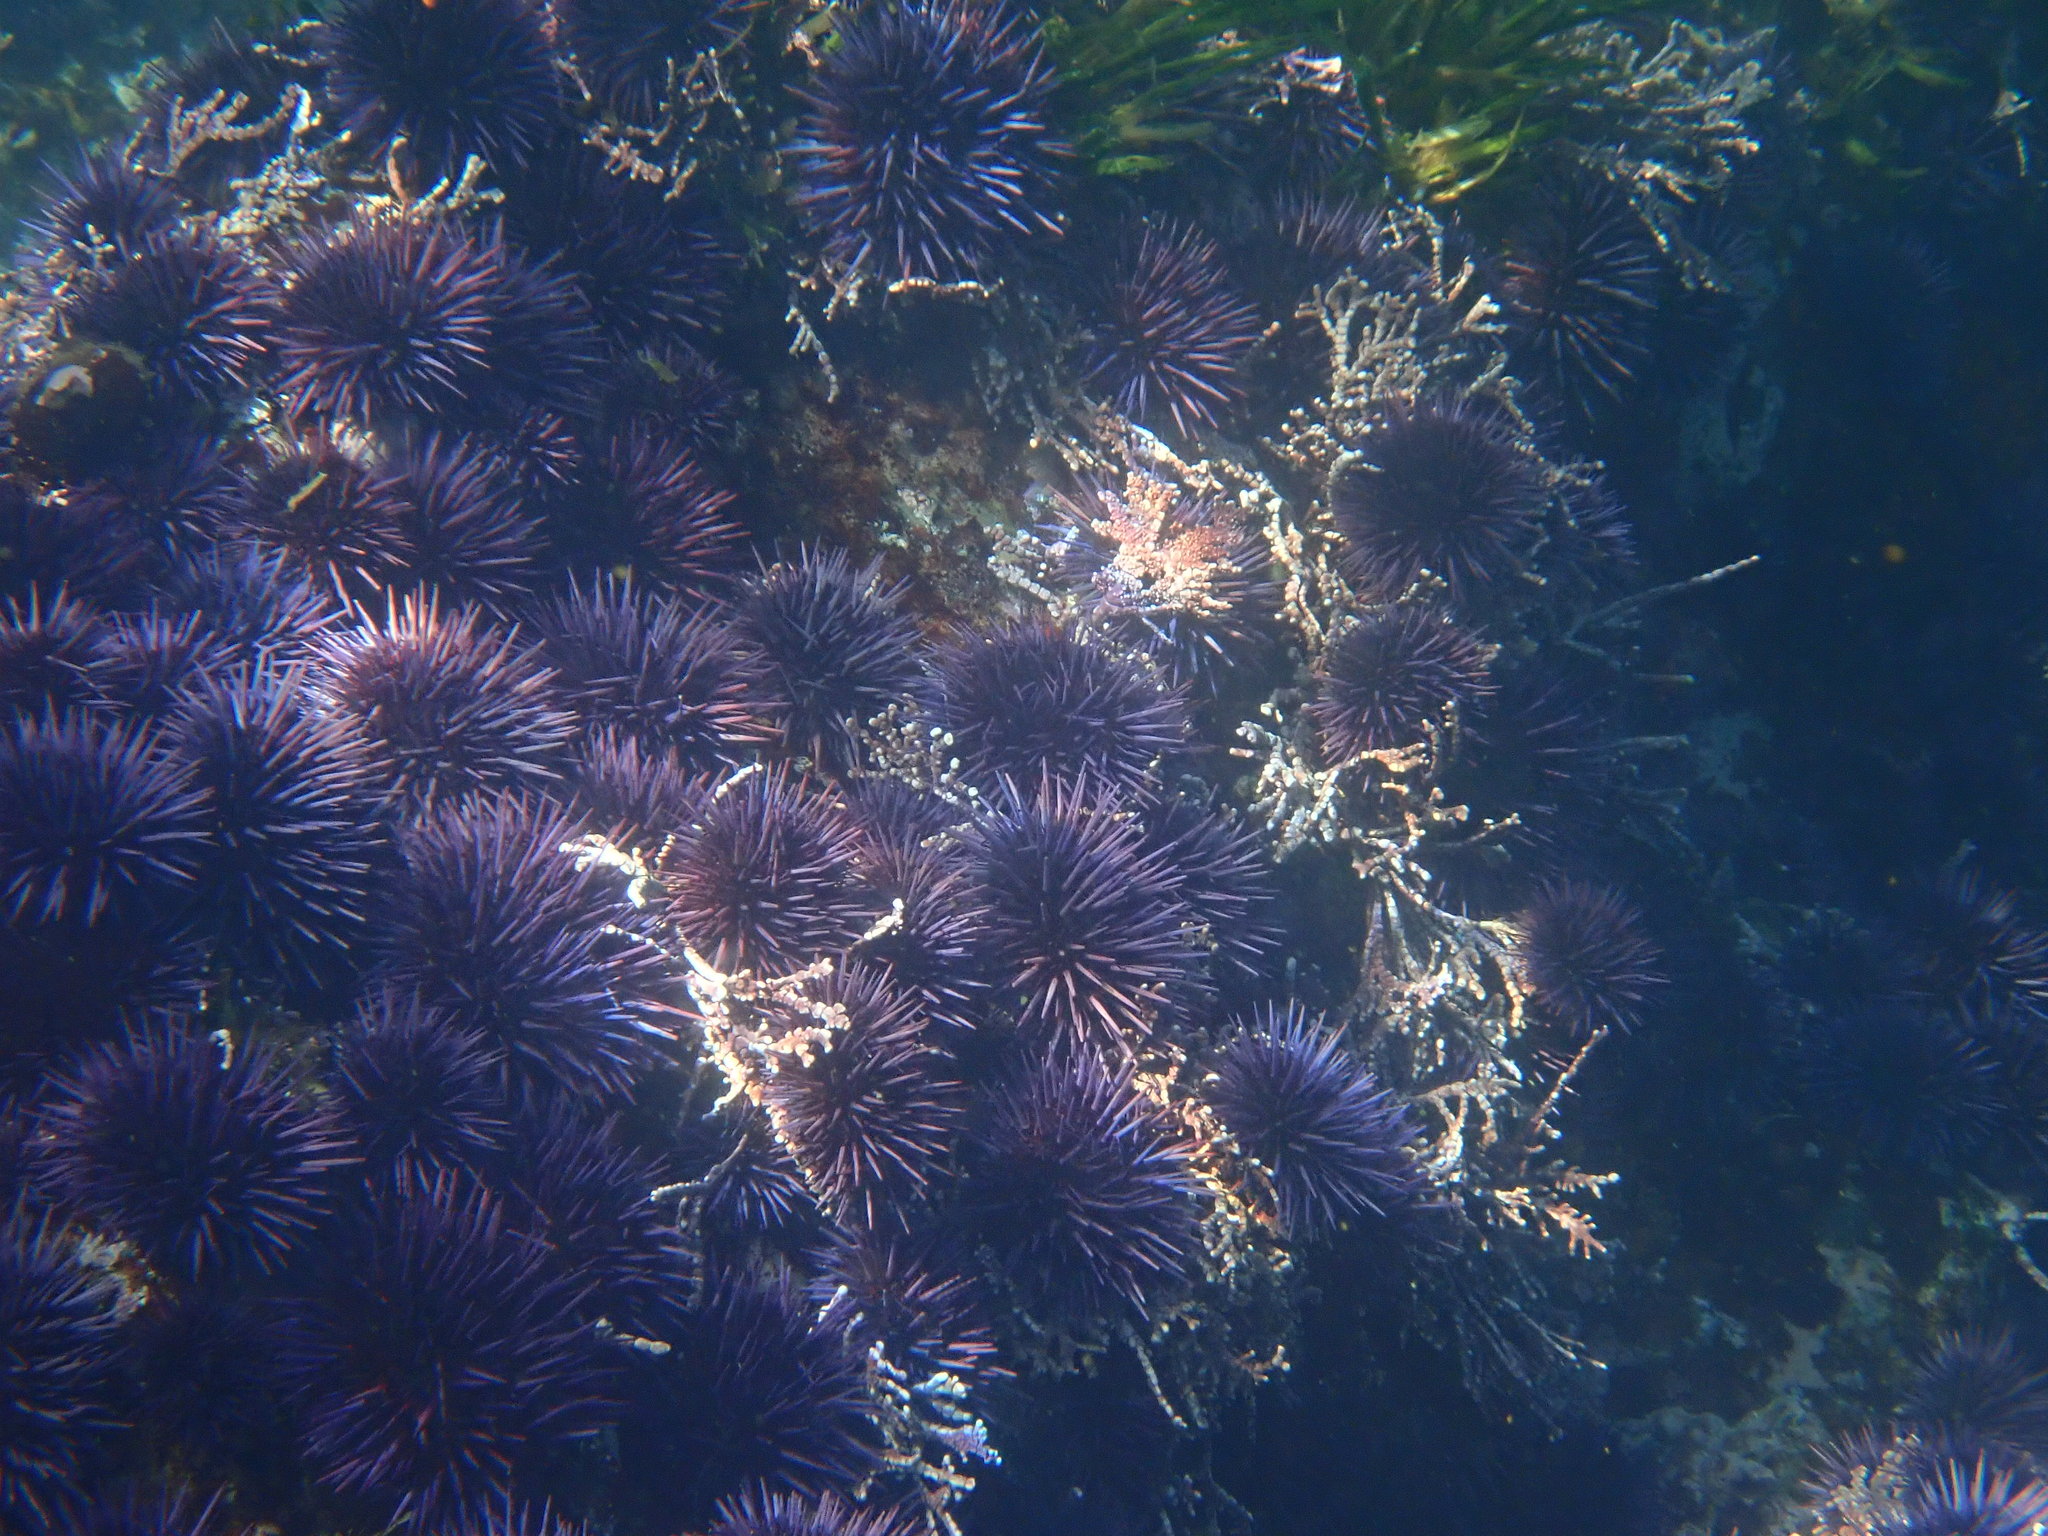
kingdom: Animalia
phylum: Echinodermata
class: Echinoidea
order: Camarodonta
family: Strongylocentrotidae
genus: Strongylocentrotus
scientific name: Strongylocentrotus purpuratus
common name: Purple sea urchin
